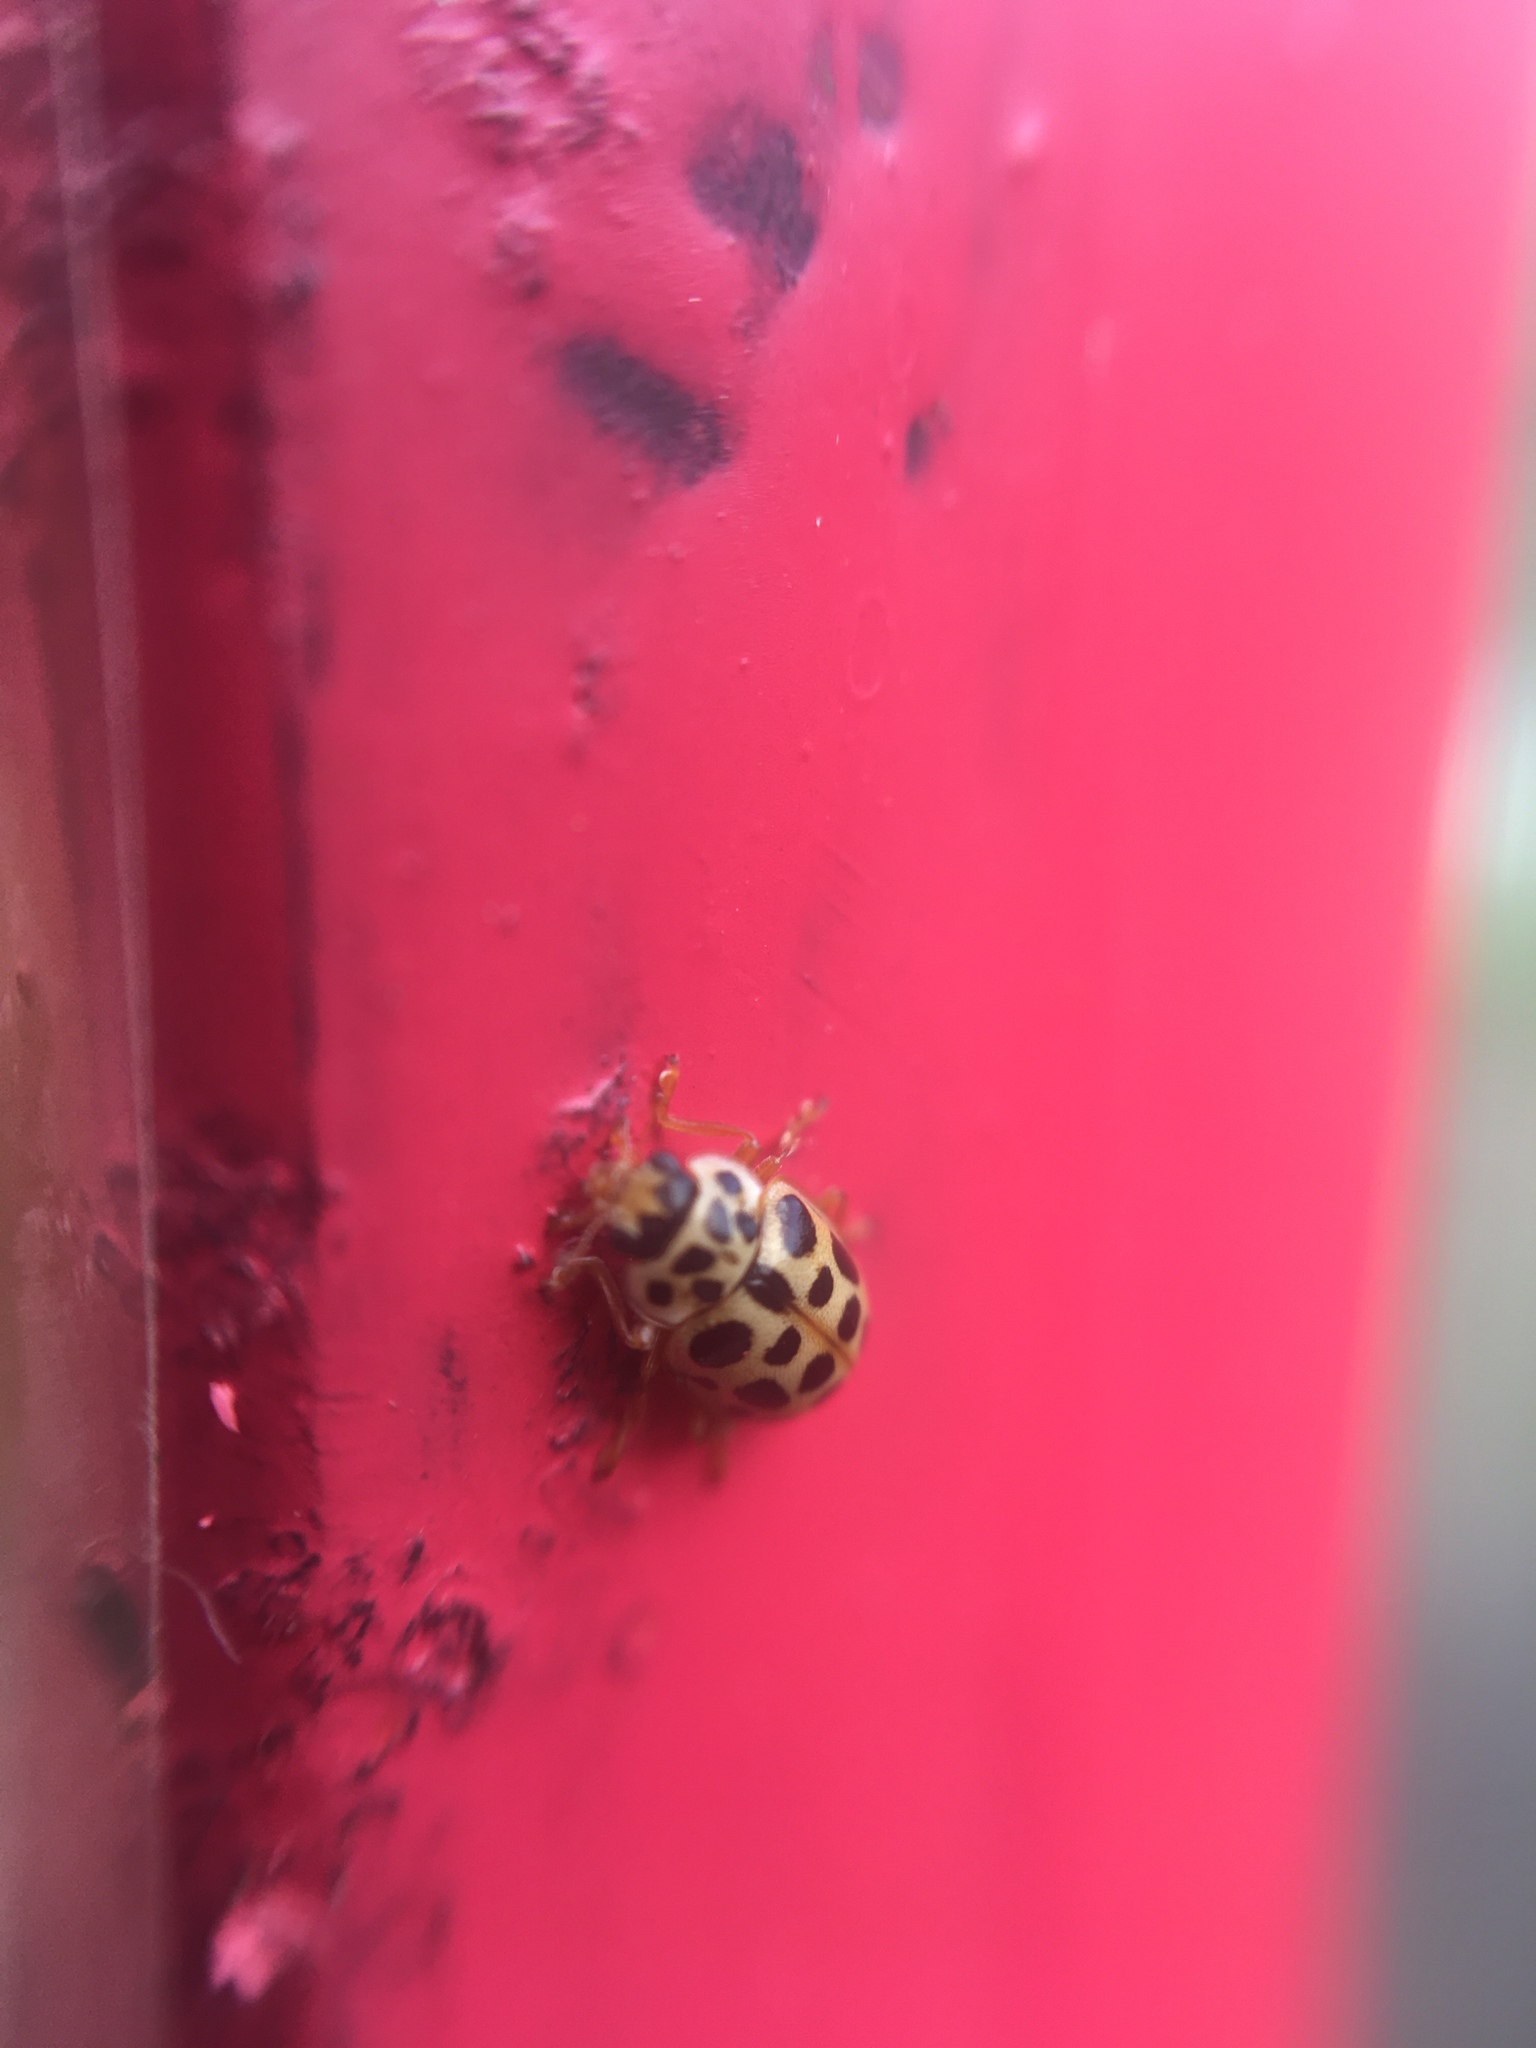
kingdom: Animalia
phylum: Arthropoda
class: Insecta
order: Coleoptera
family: Coccinellidae
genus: Anisosticta
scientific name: Anisosticta novemdecimpunctata
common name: Water ladybird
